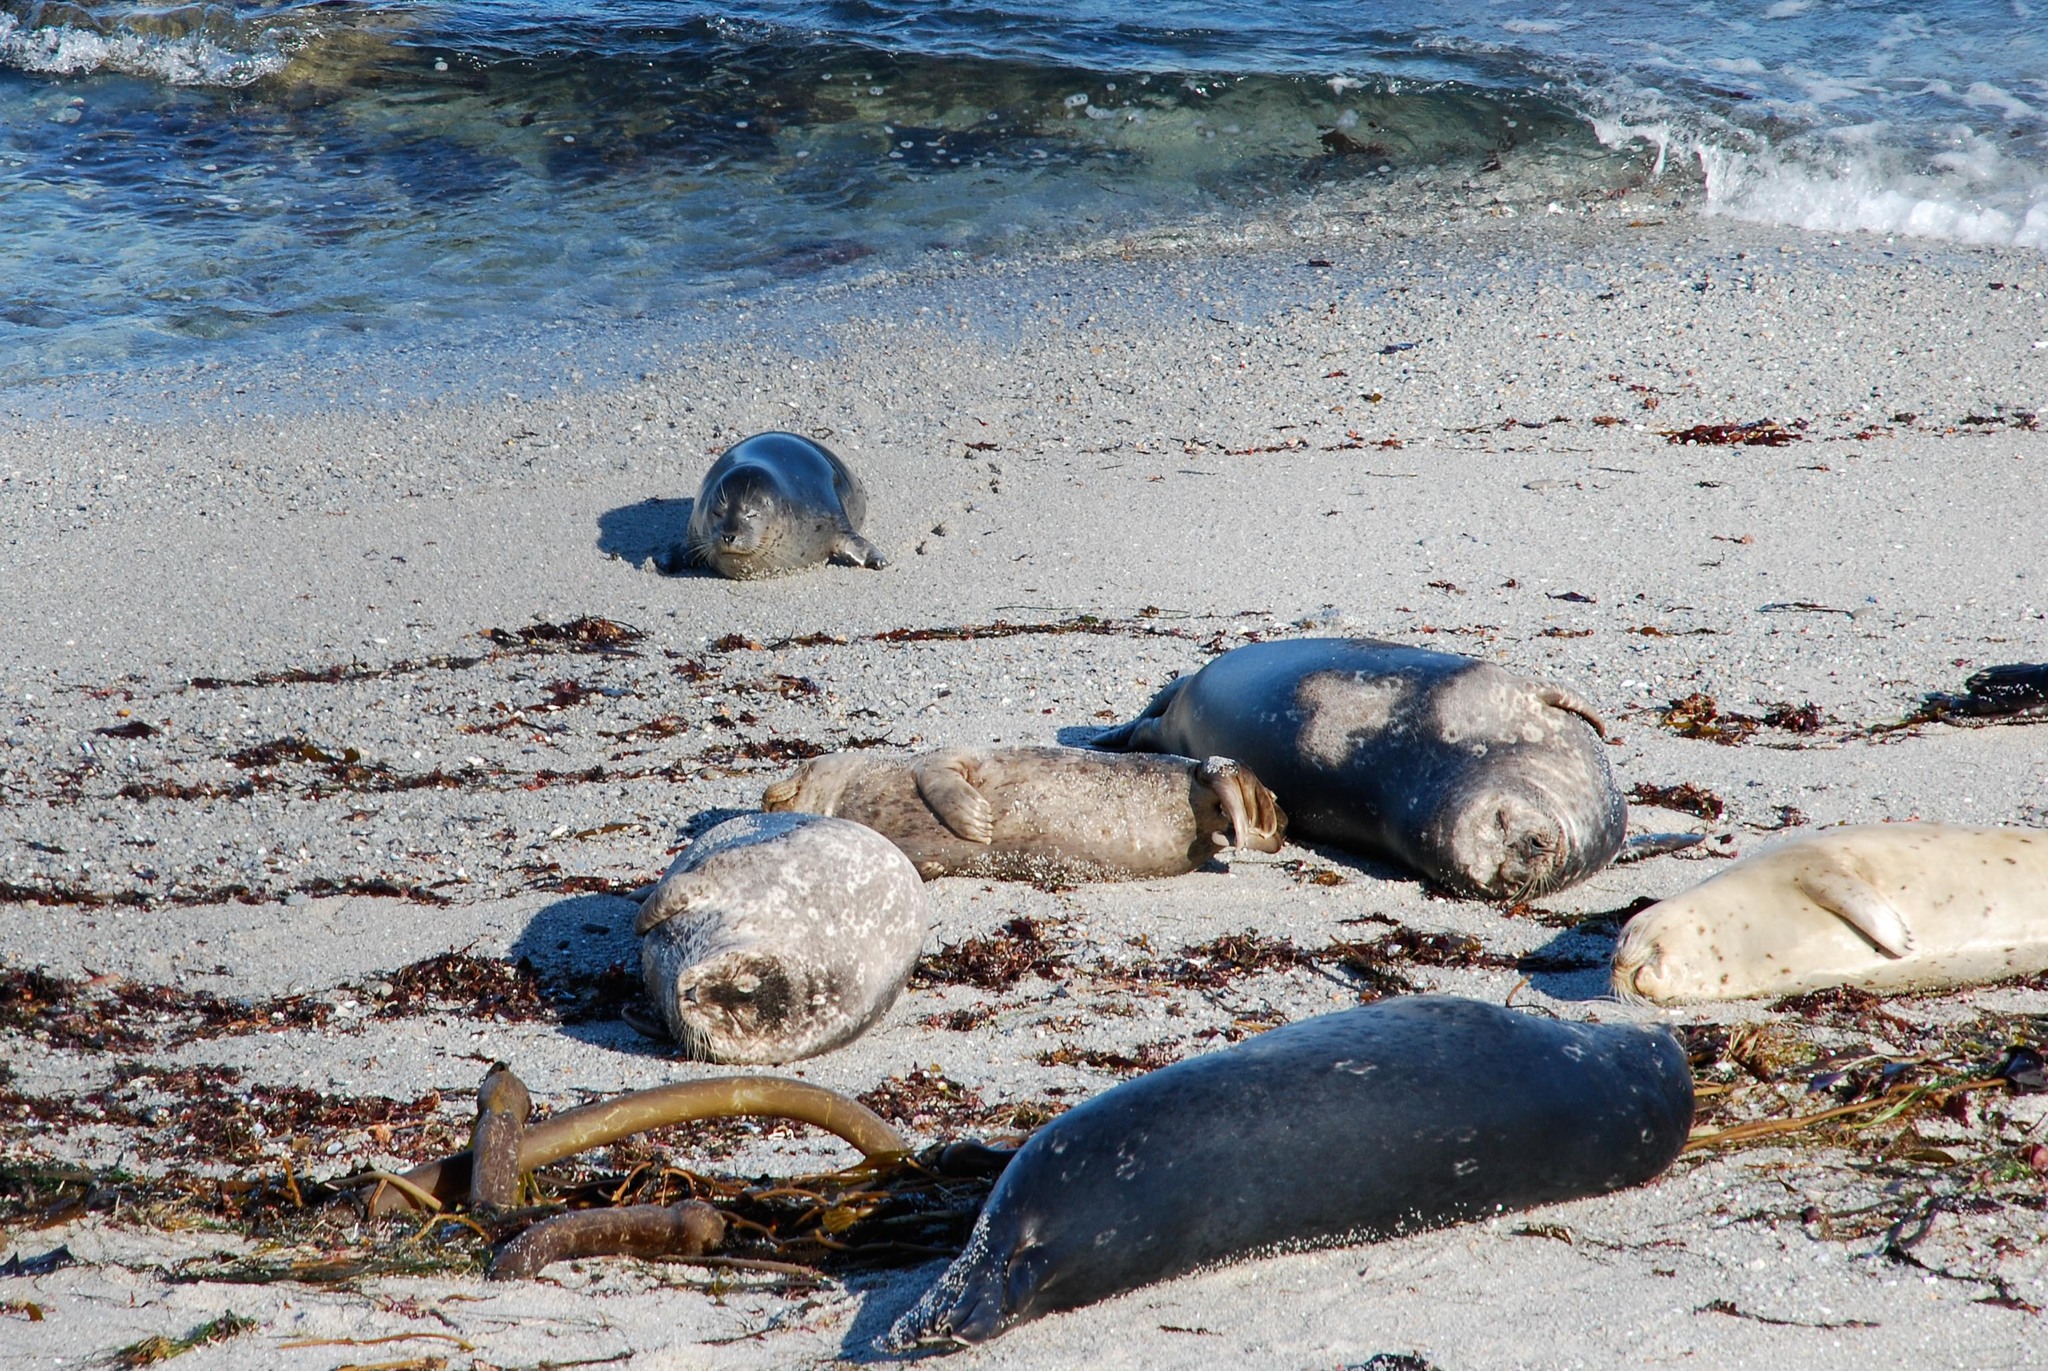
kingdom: Animalia
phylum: Chordata
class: Mammalia
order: Carnivora
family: Phocidae
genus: Phoca
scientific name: Phoca vitulina
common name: Harbor seal
